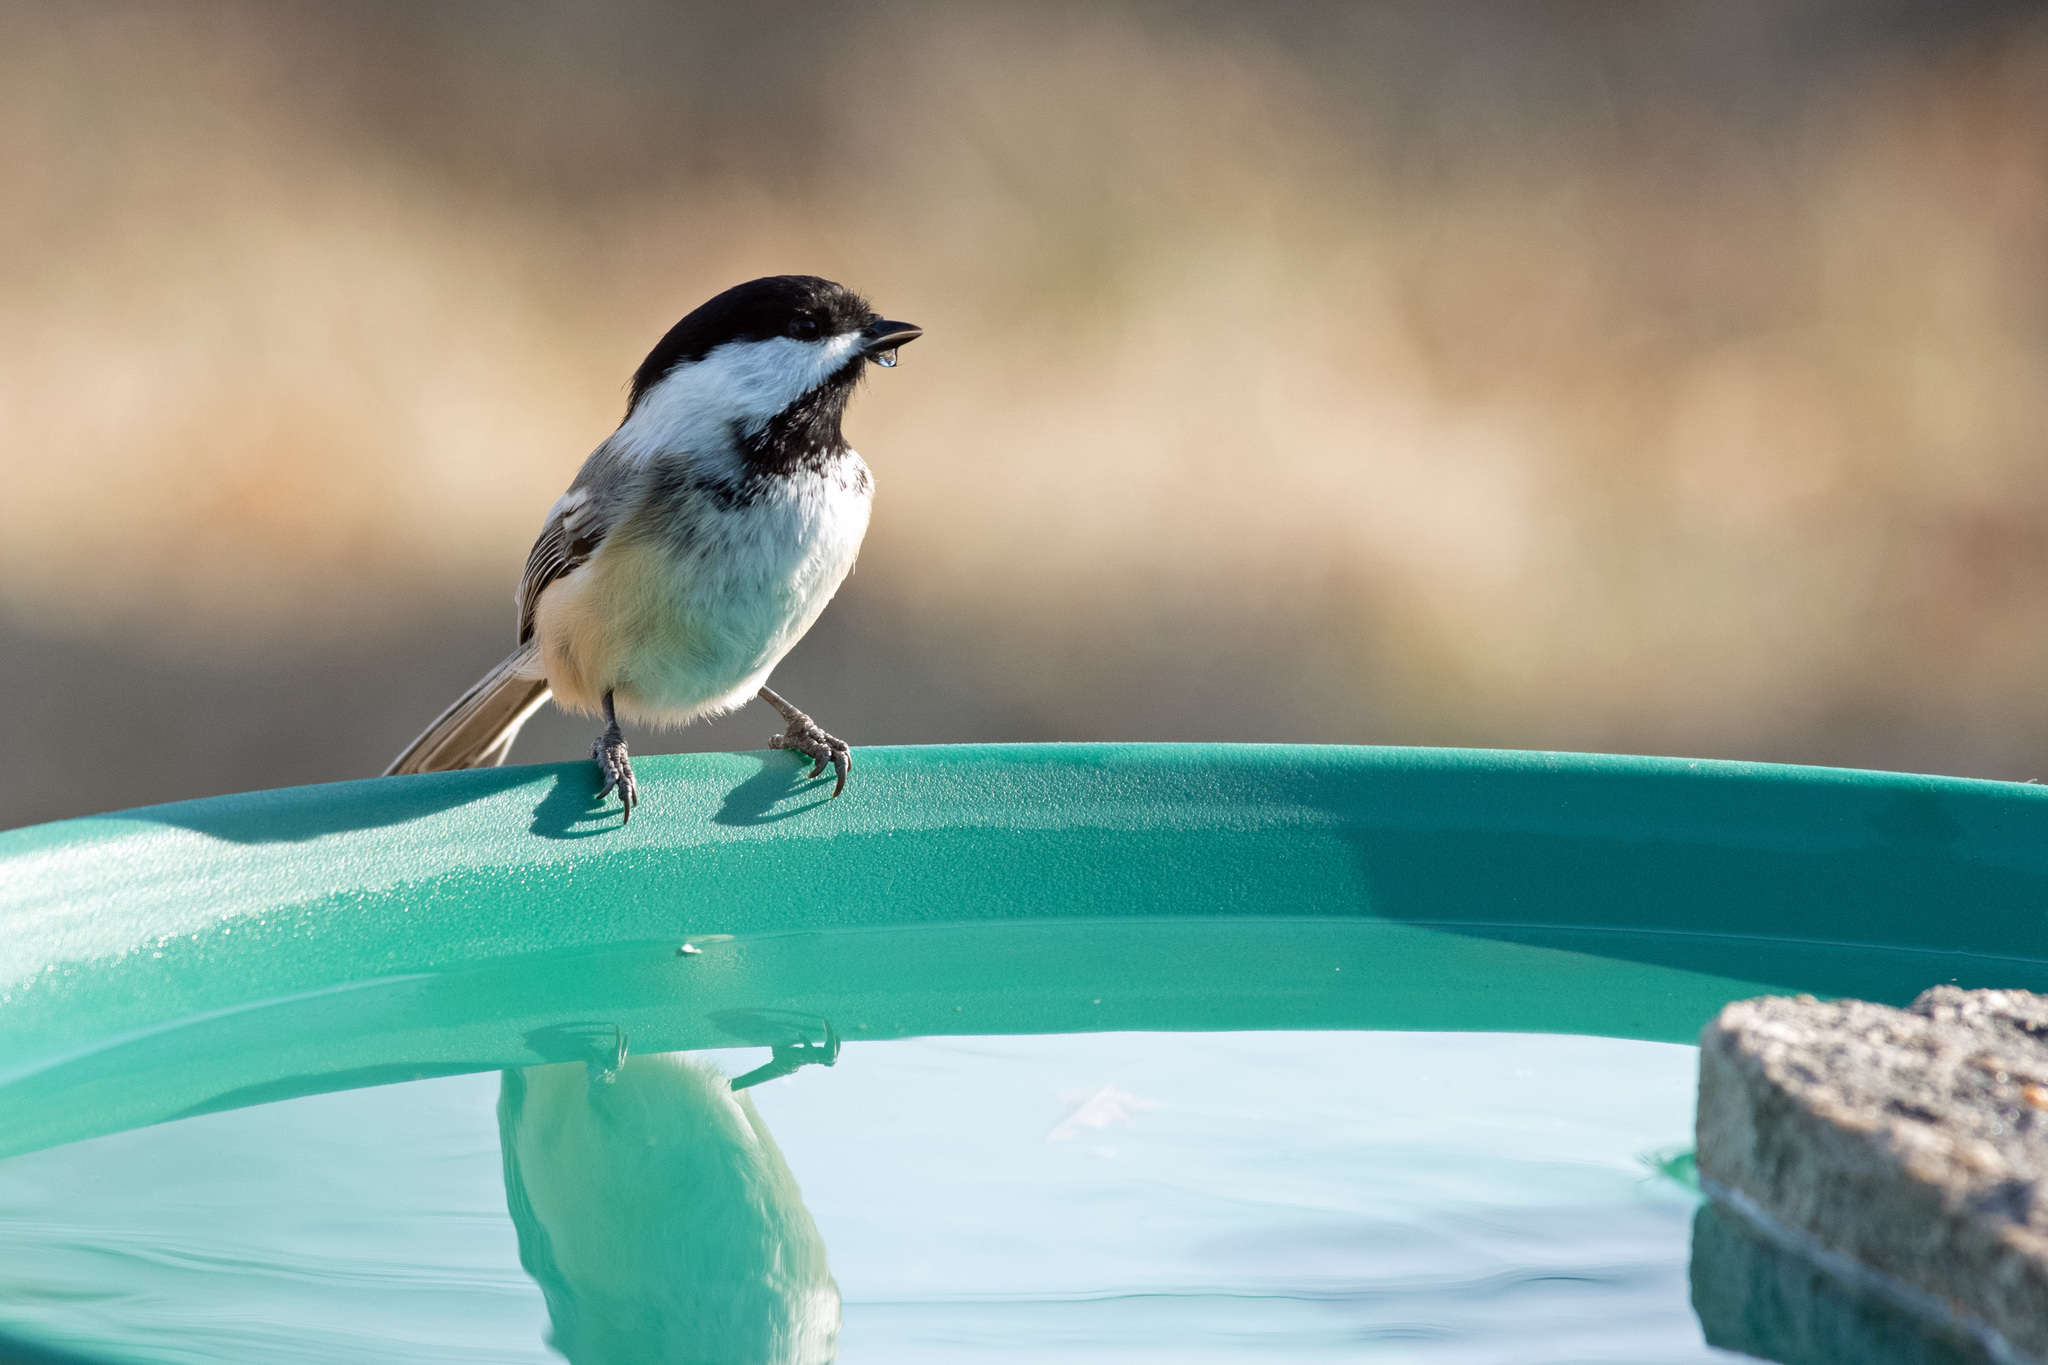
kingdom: Animalia
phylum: Chordata
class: Aves
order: Passeriformes
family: Paridae
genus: Poecile
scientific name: Poecile atricapillus
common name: Black-capped chickadee
